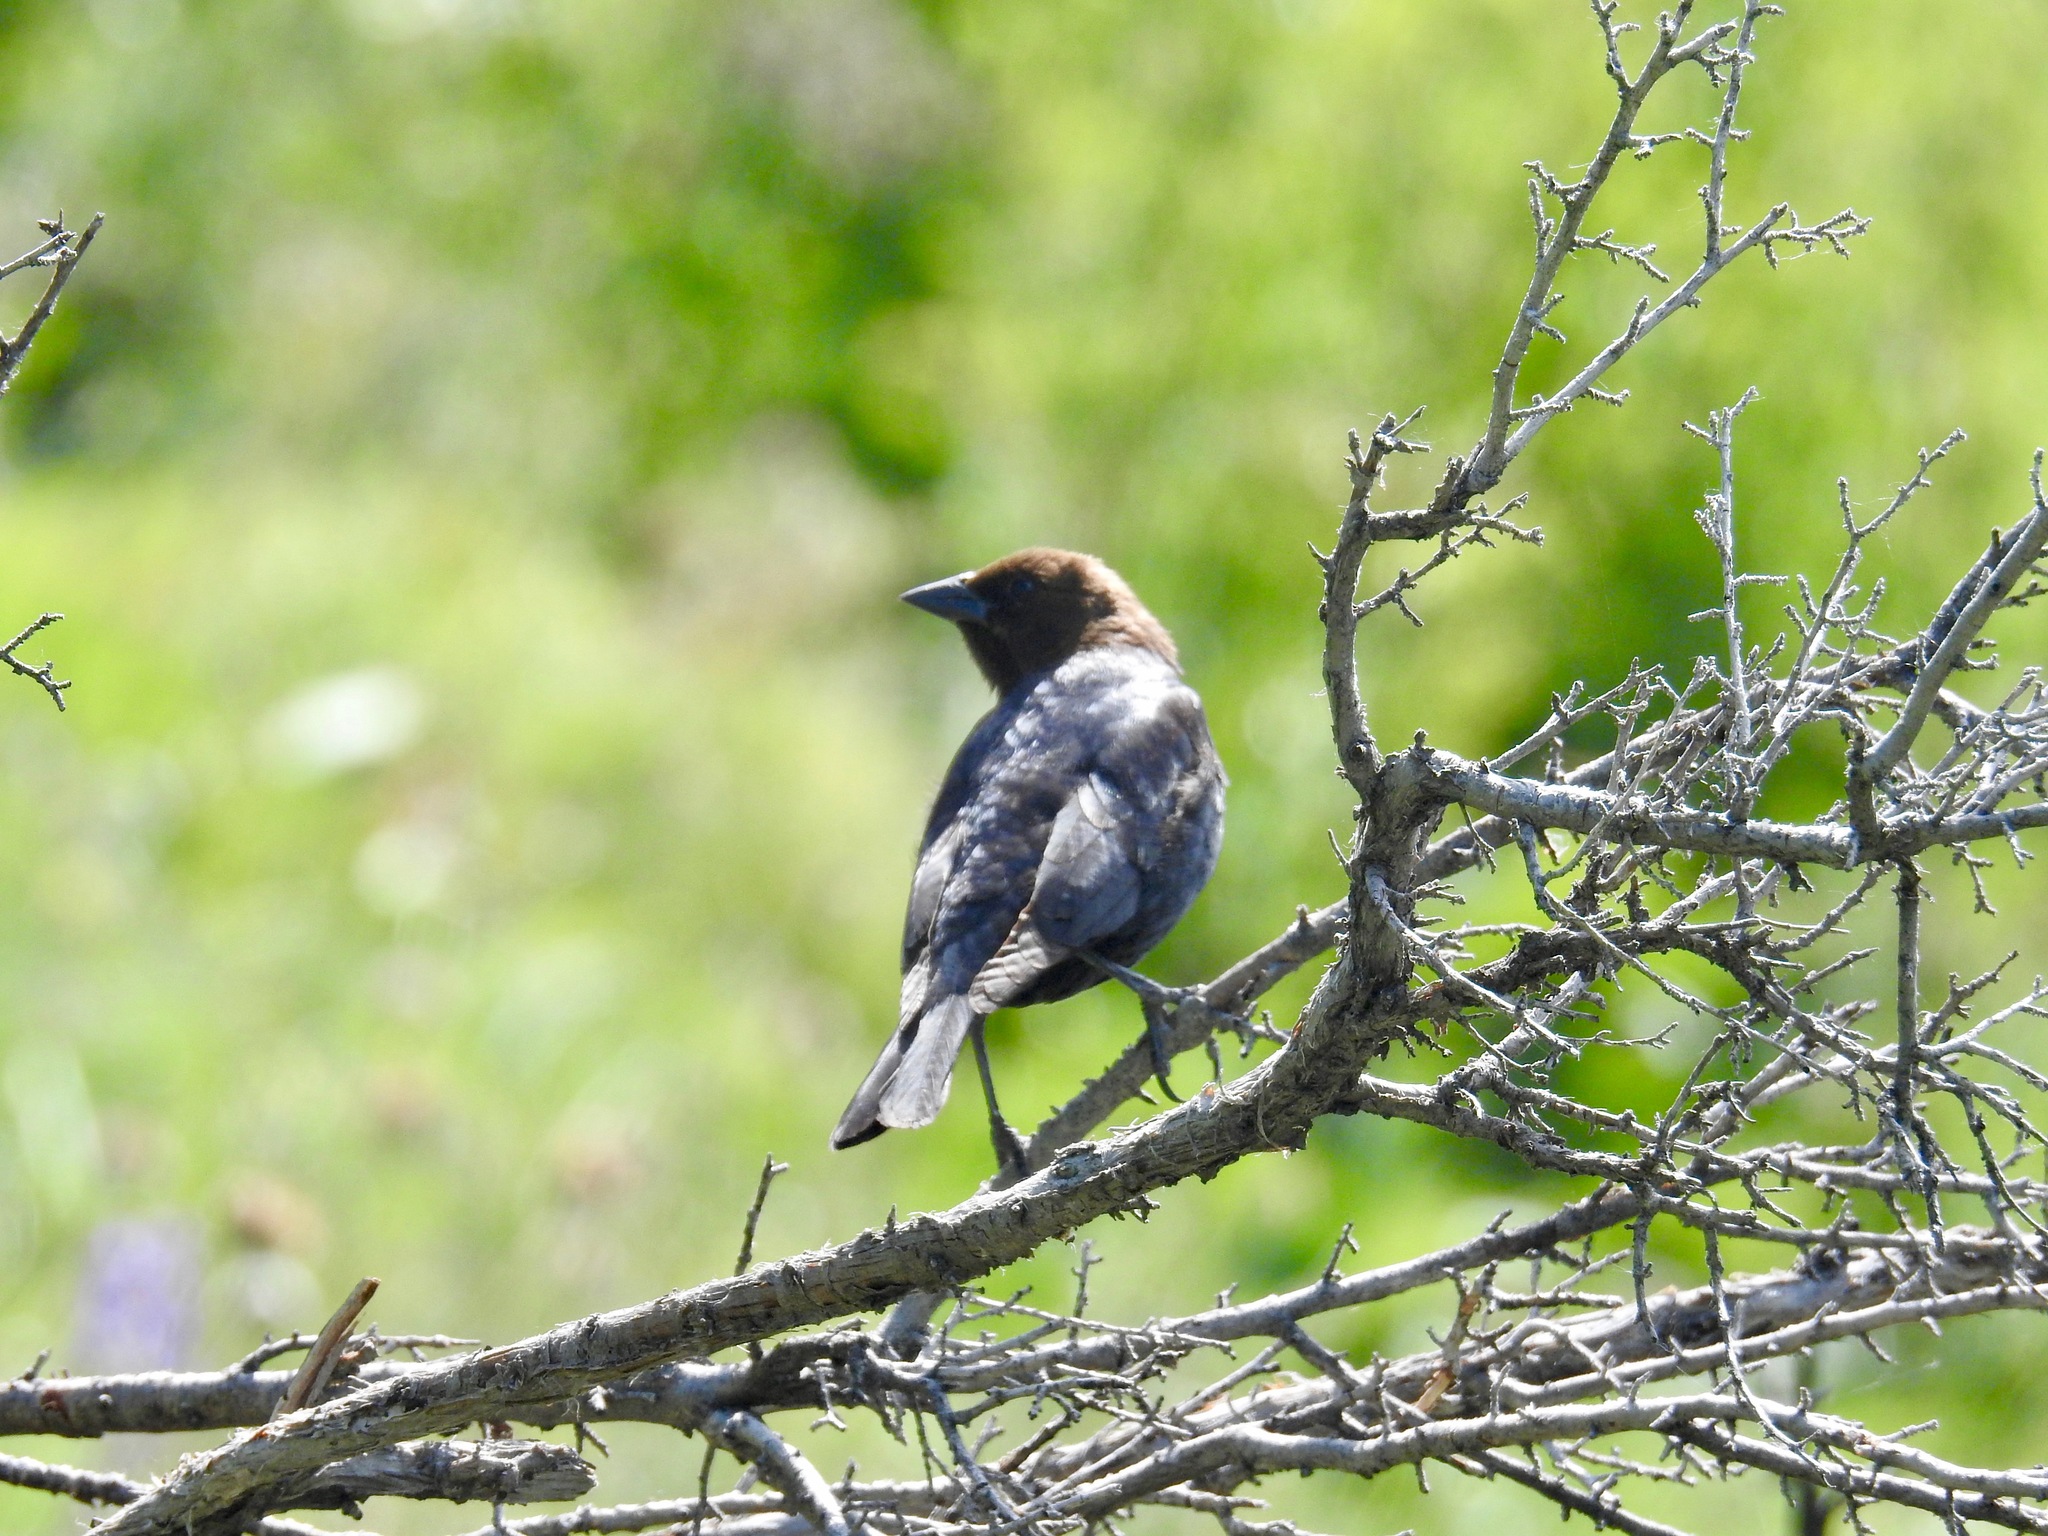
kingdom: Animalia
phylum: Chordata
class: Aves
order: Passeriformes
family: Icteridae
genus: Molothrus
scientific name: Molothrus ater
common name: Brown-headed cowbird
